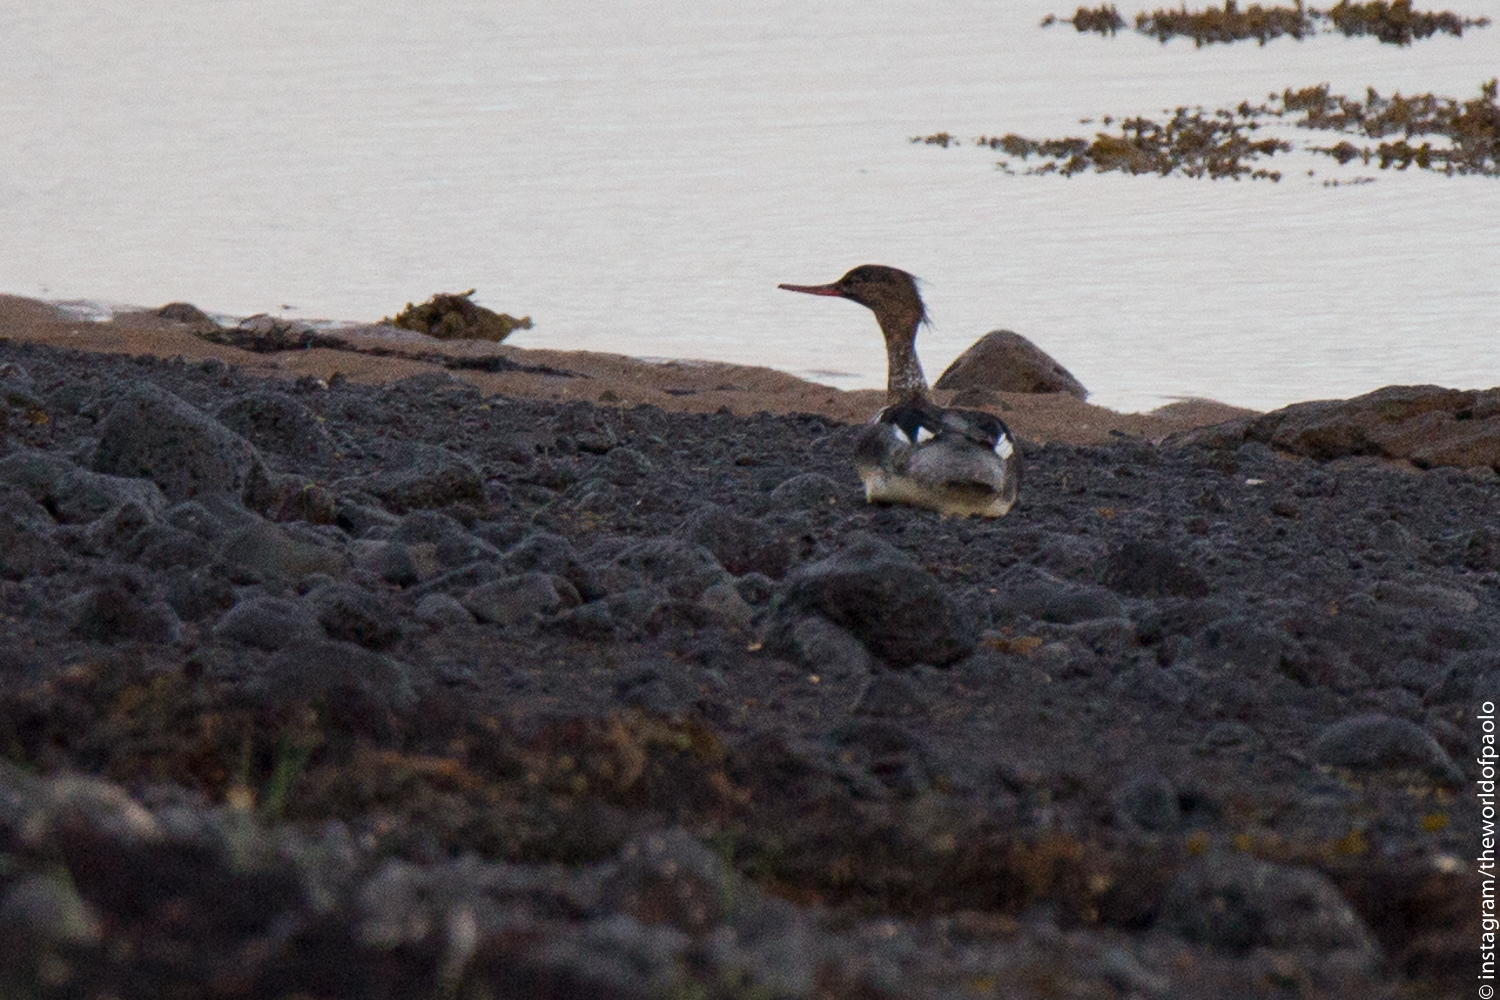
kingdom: Animalia
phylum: Chordata
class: Aves
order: Anseriformes
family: Anatidae
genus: Mergus
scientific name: Mergus serrator
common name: Red-breasted merganser
